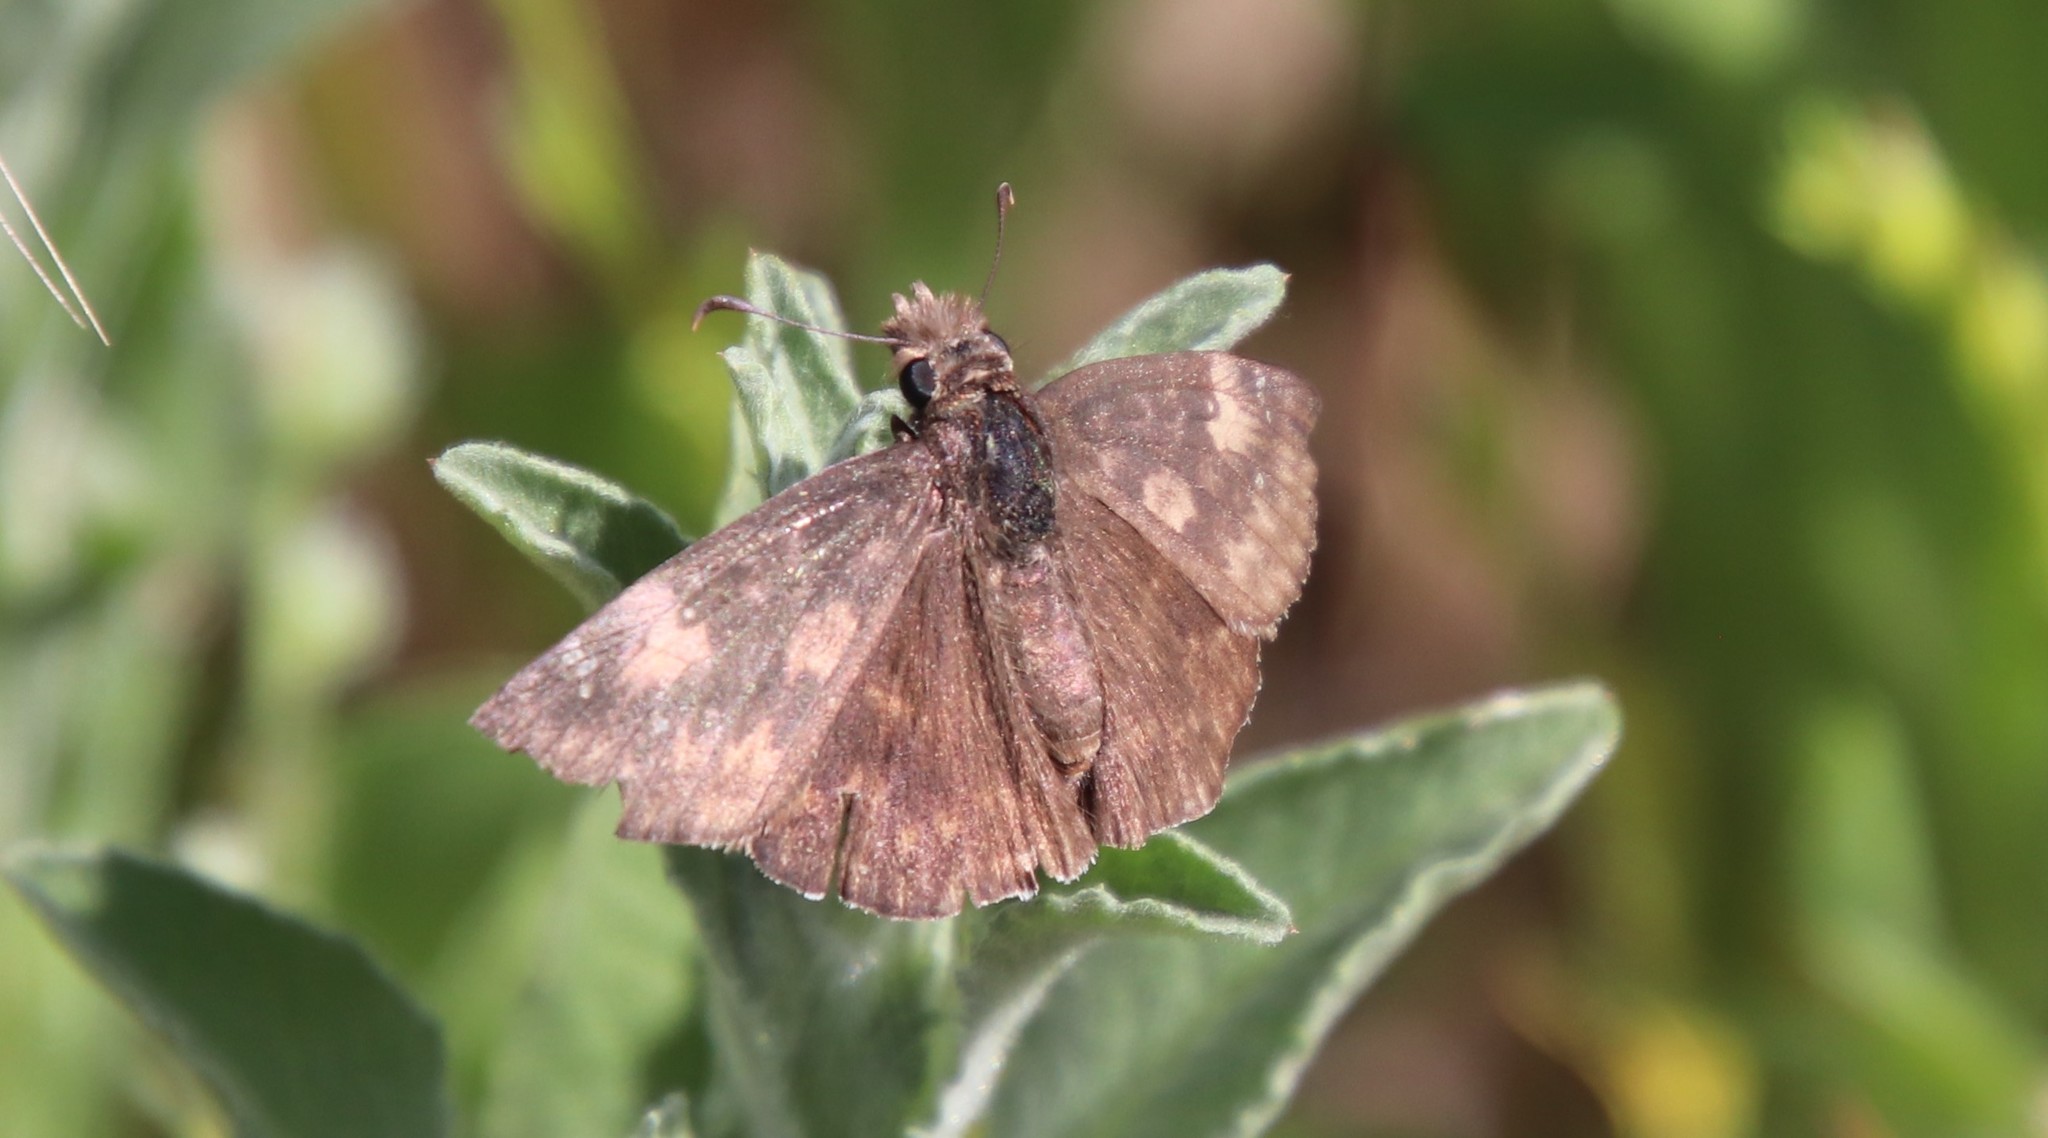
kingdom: Animalia
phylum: Arthropoda
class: Insecta
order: Lepidoptera
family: Hesperiidae
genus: Erynnis
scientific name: Erynnis funeralis
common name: Funereal duskywing
